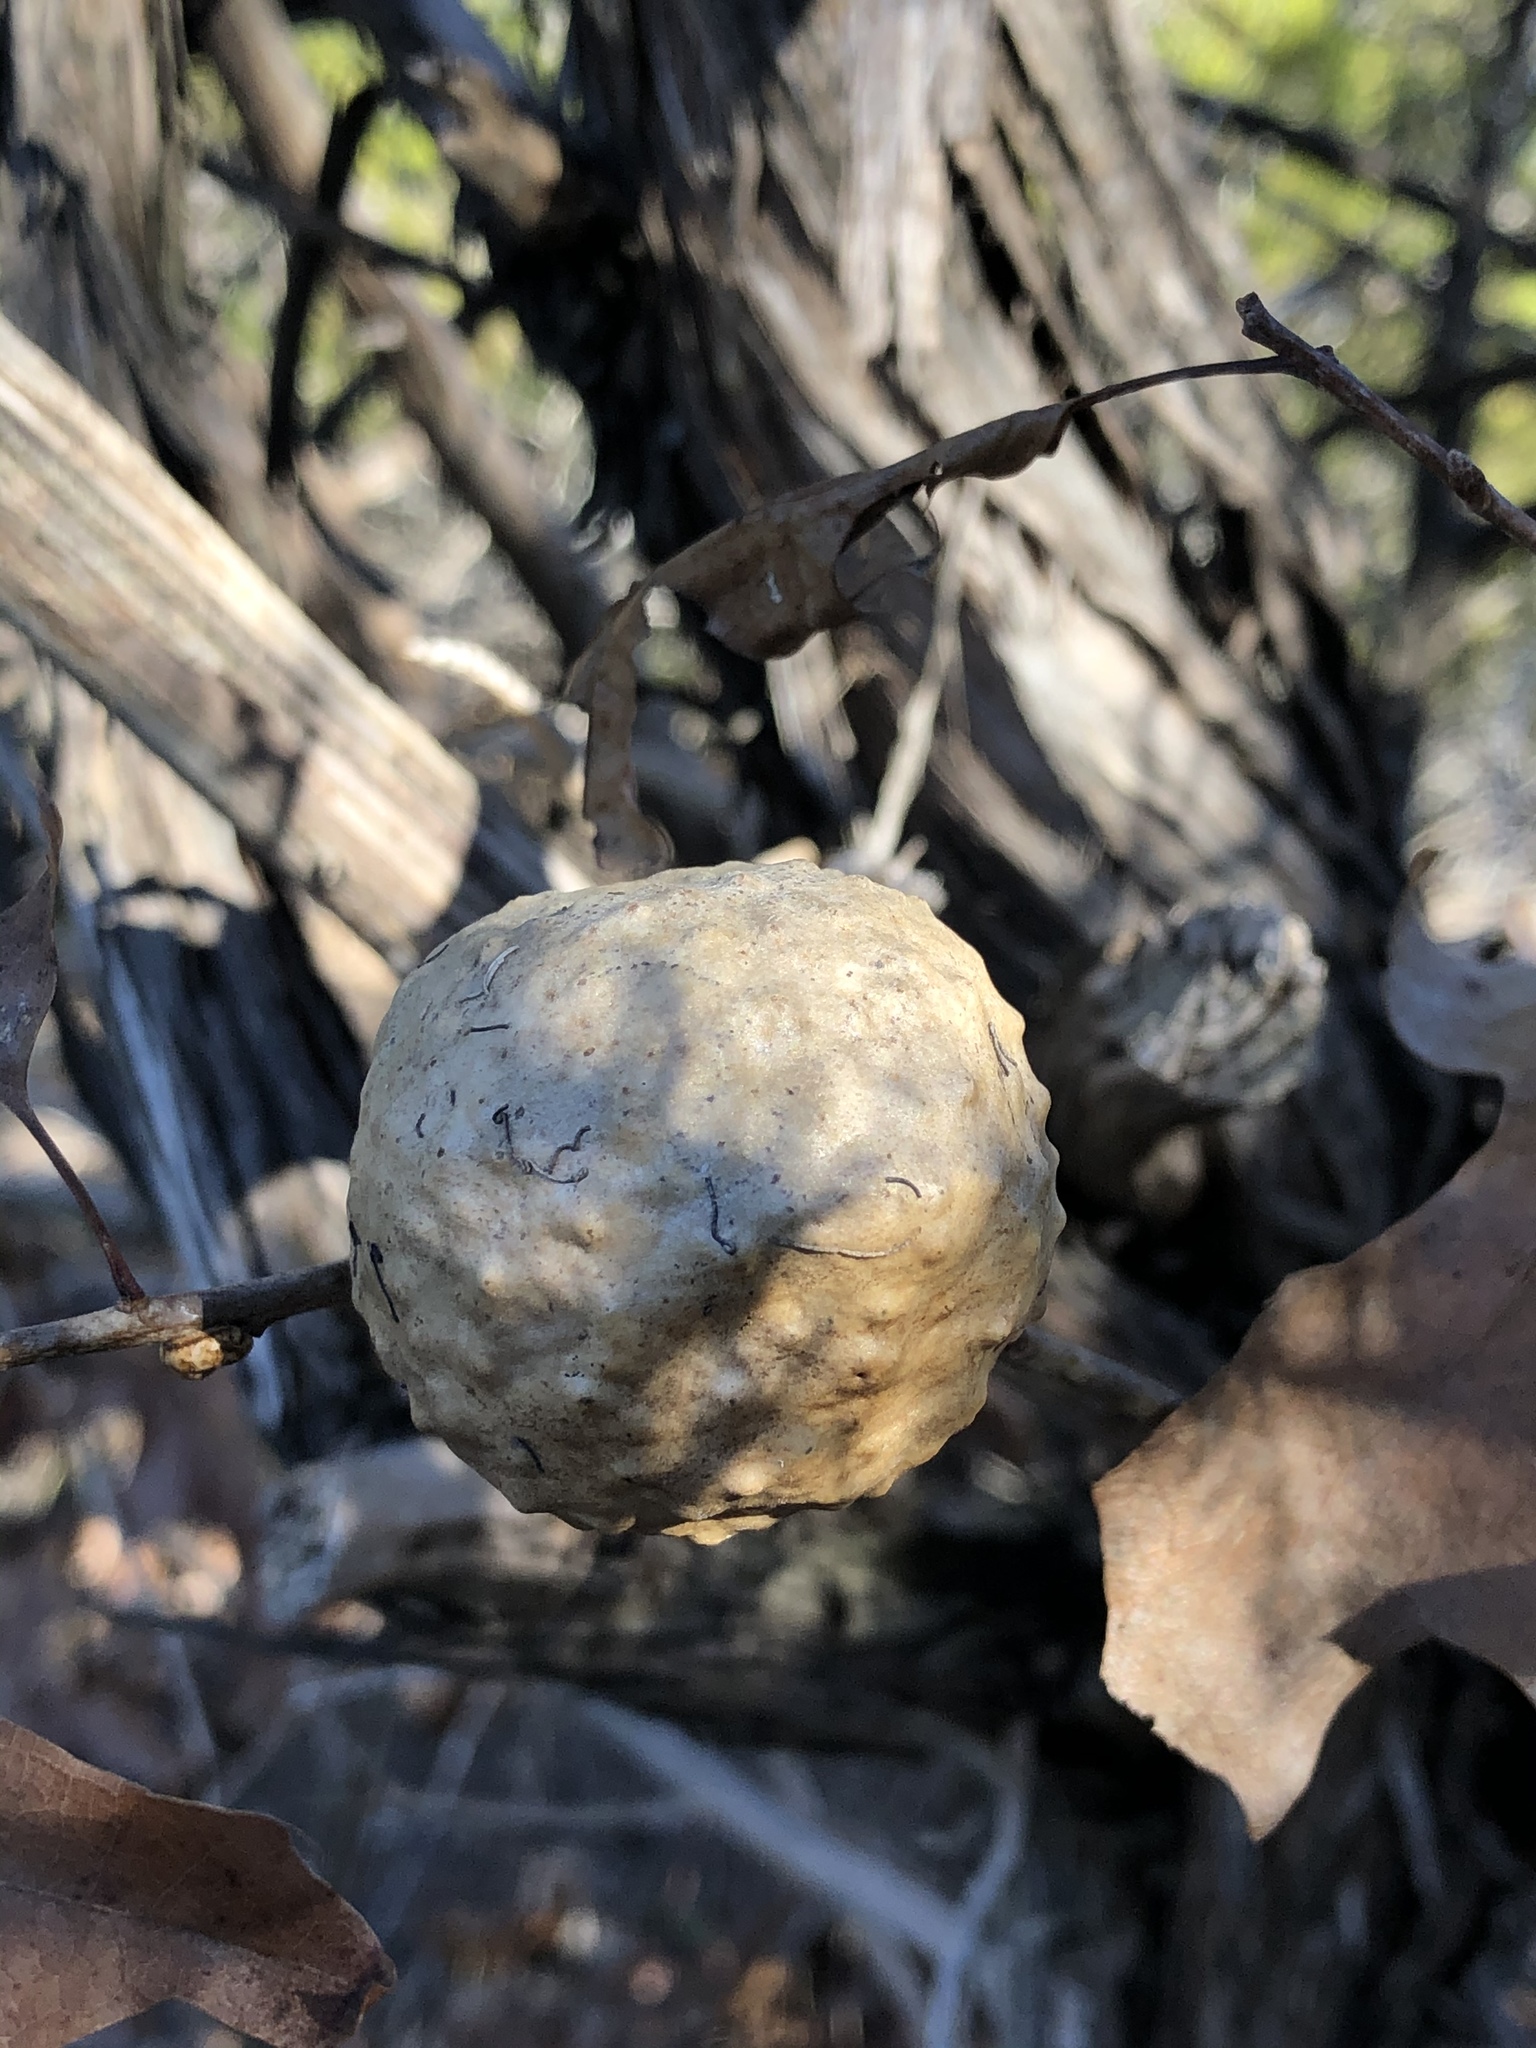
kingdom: Animalia
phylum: Arthropoda
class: Insecta
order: Hymenoptera
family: Cynipidae
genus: Amphibolips
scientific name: Amphibolips
